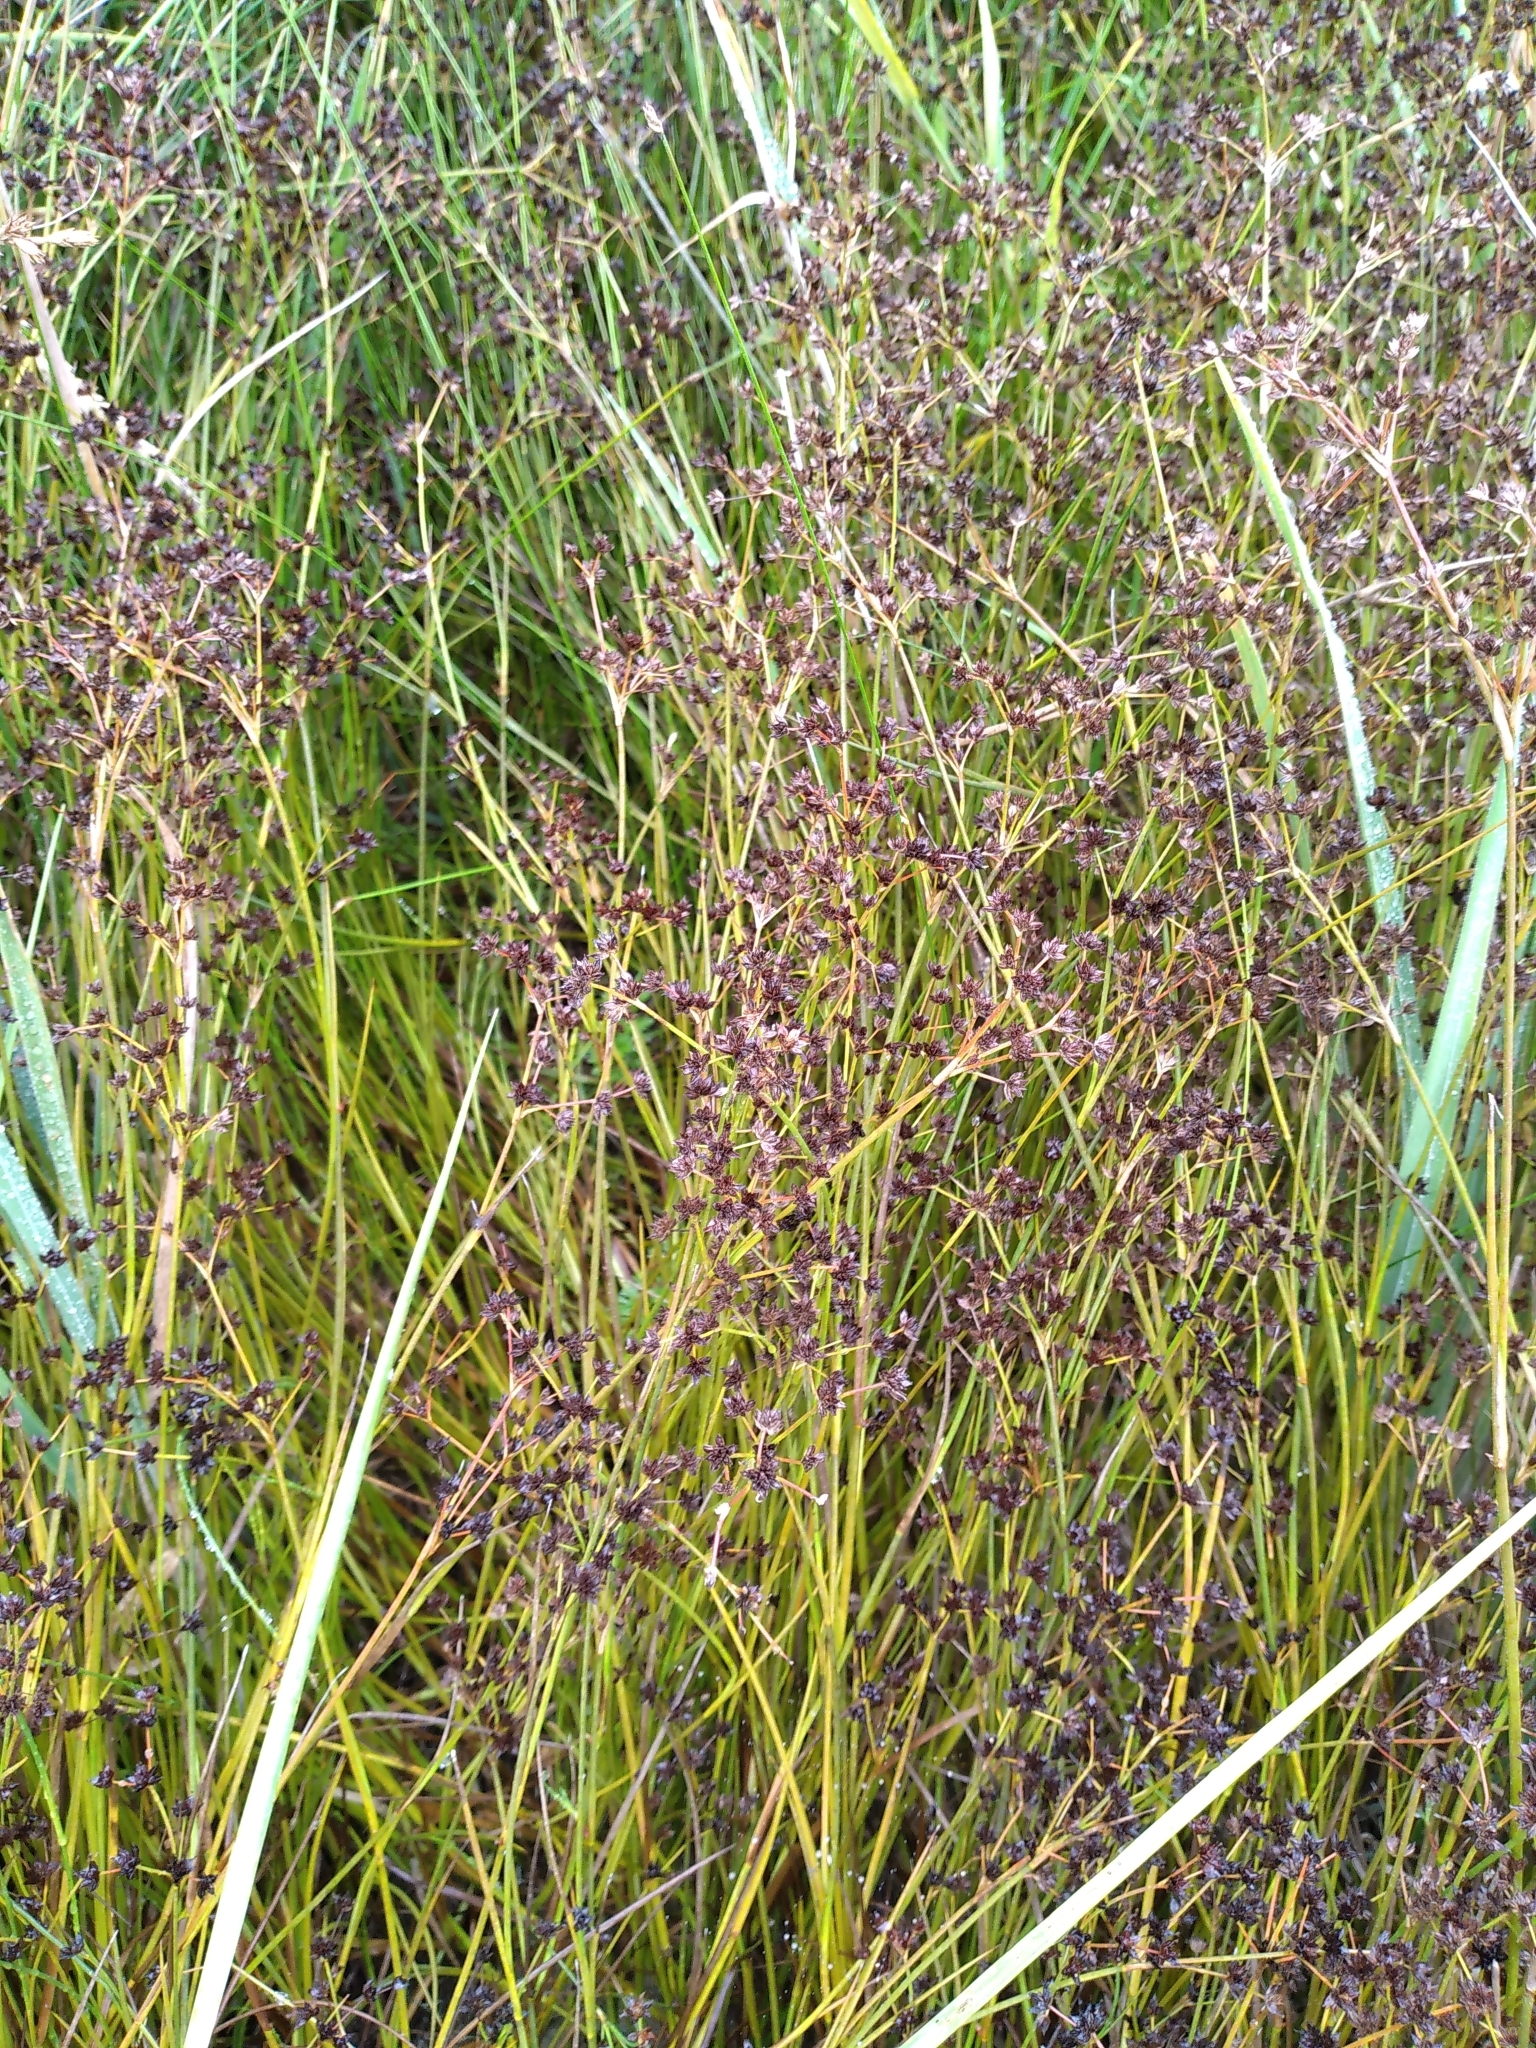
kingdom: Plantae
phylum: Tracheophyta
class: Liliopsida
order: Poales
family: Juncaceae
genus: Juncus
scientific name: Juncus articulatus
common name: Jointed rush
